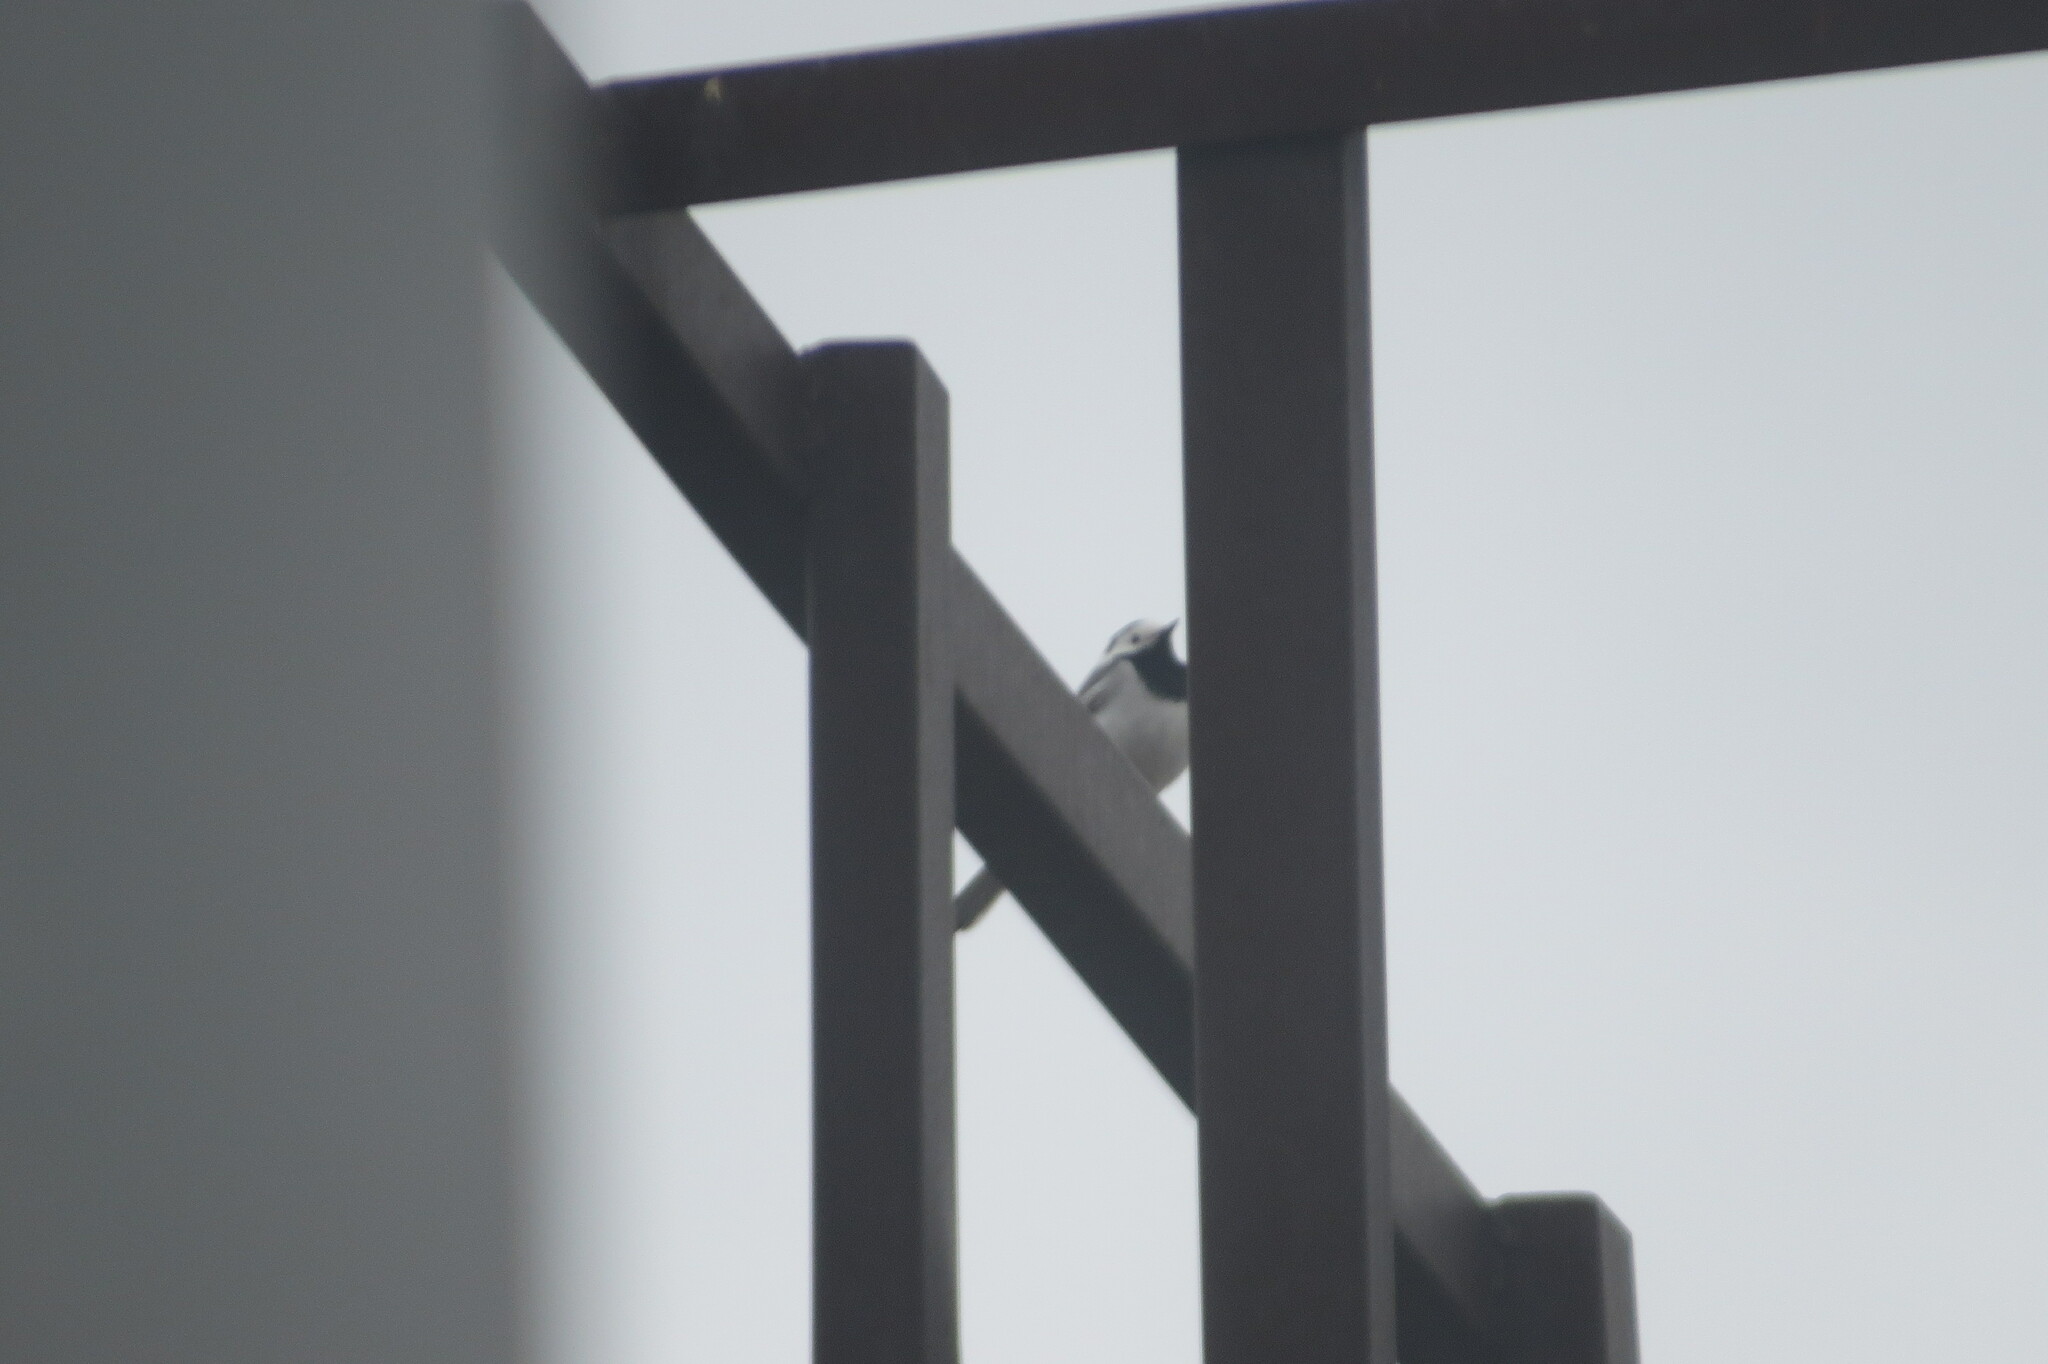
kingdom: Animalia
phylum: Chordata
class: Aves
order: Passeriformes
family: Motacillidae
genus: Motacilla
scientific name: Motacilla alba
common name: White wagtail
